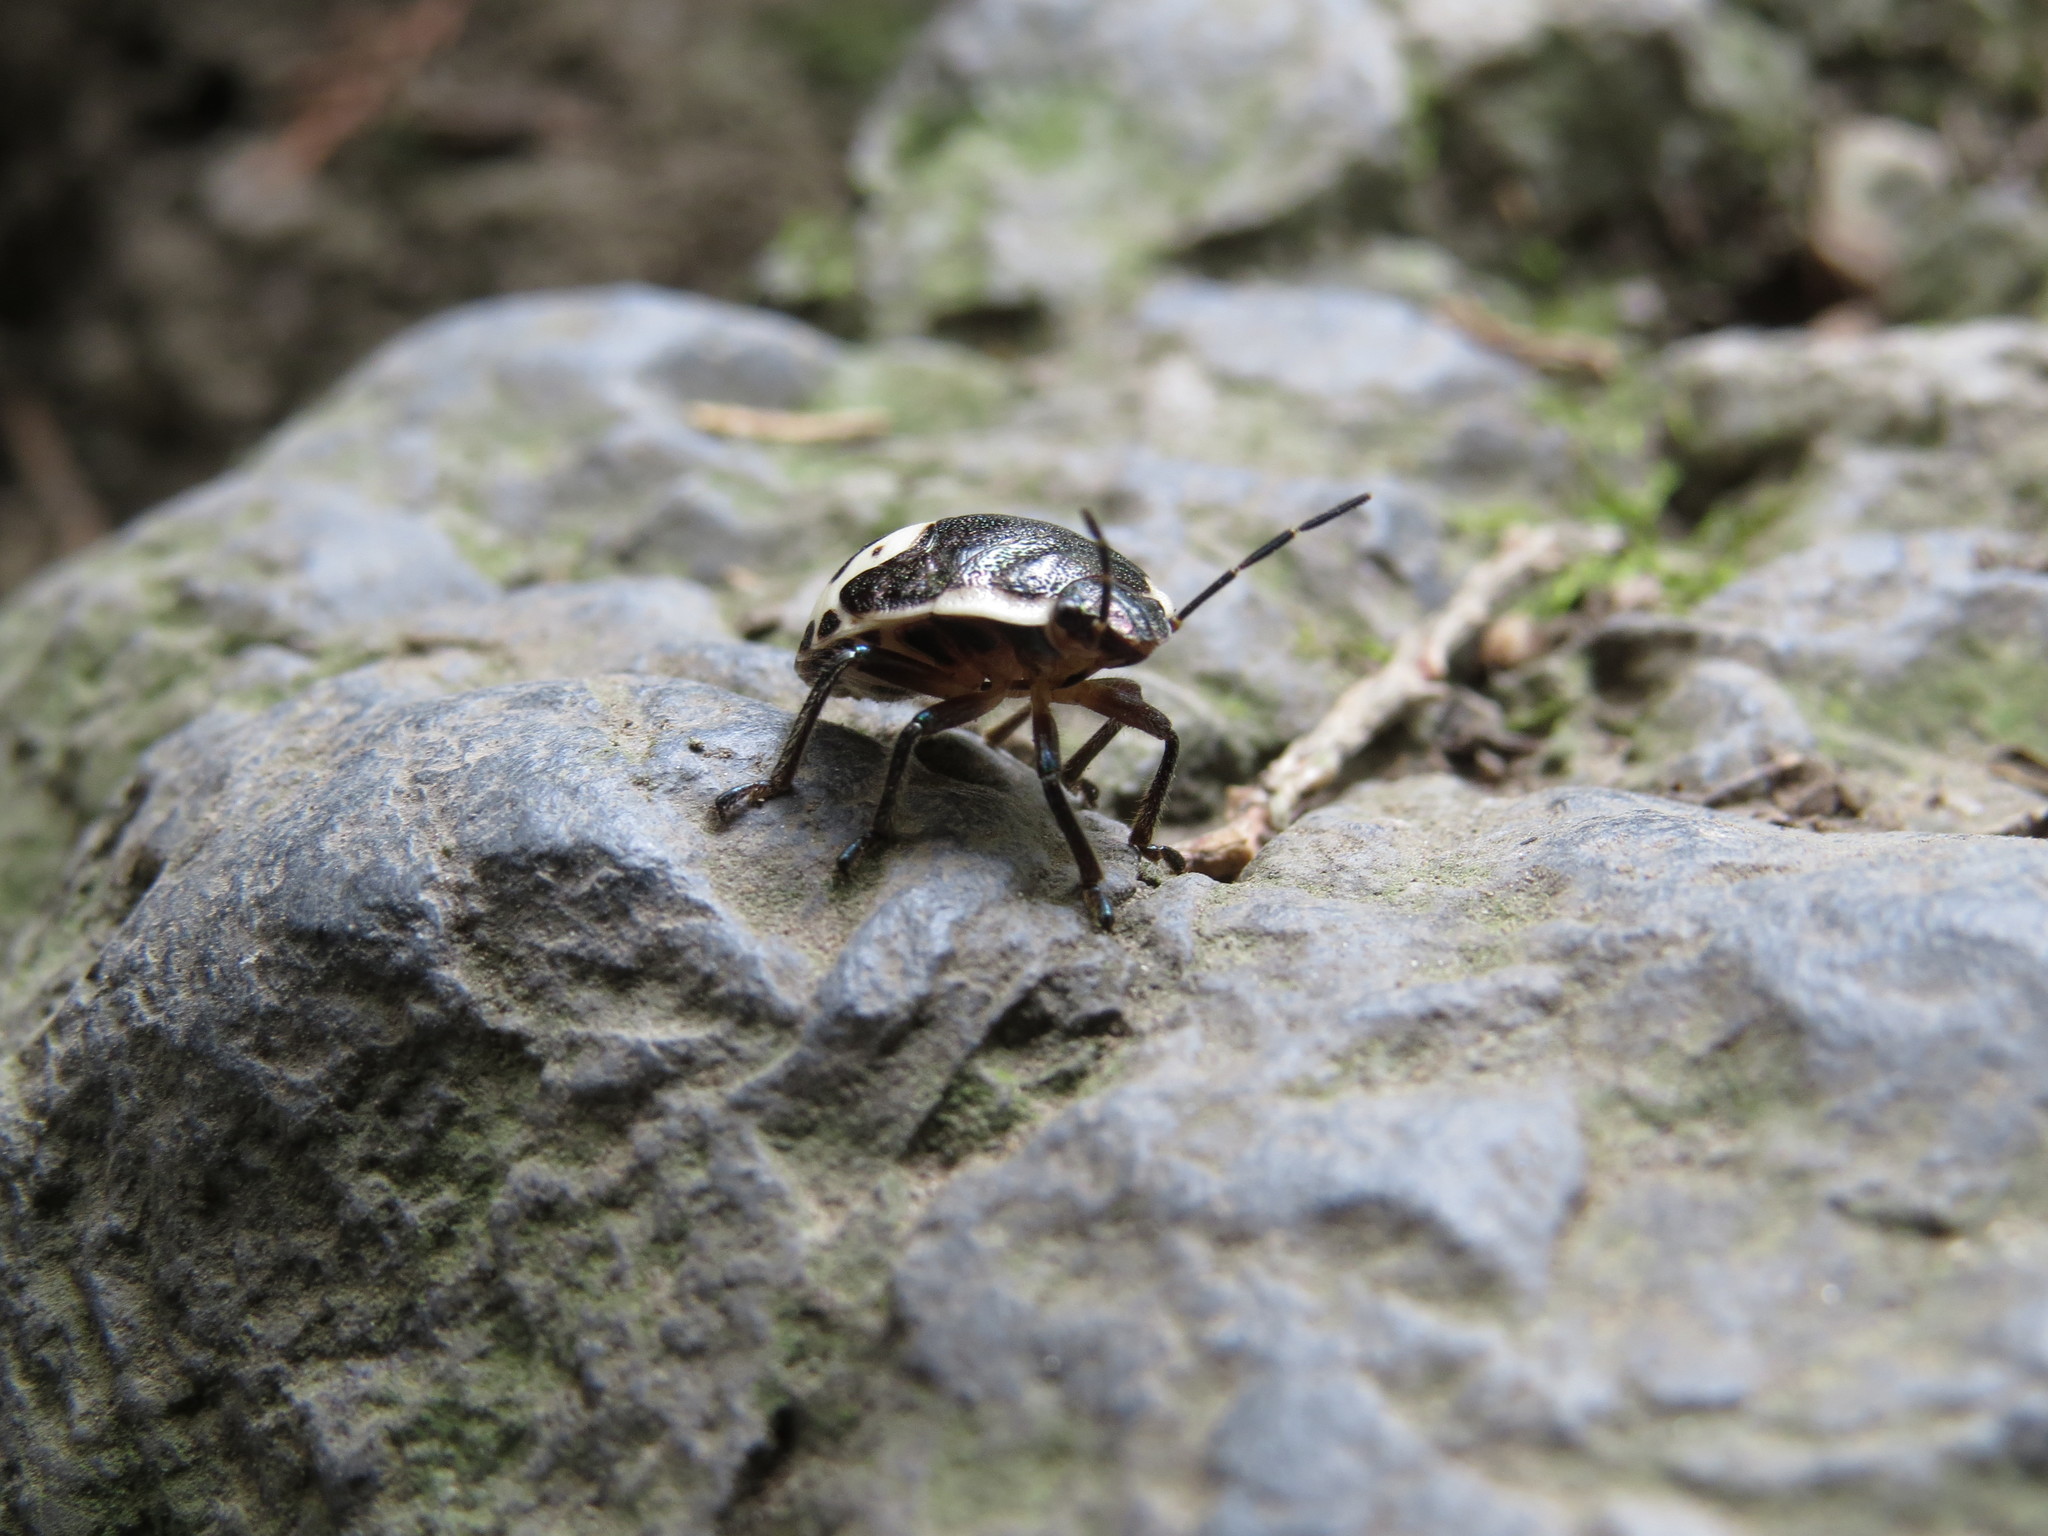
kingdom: Animalia
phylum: Arthropoda
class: Insecta
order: Hemiptera
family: Scutelleridae
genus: Poecilocoris
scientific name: Poecilocoris lewisi
